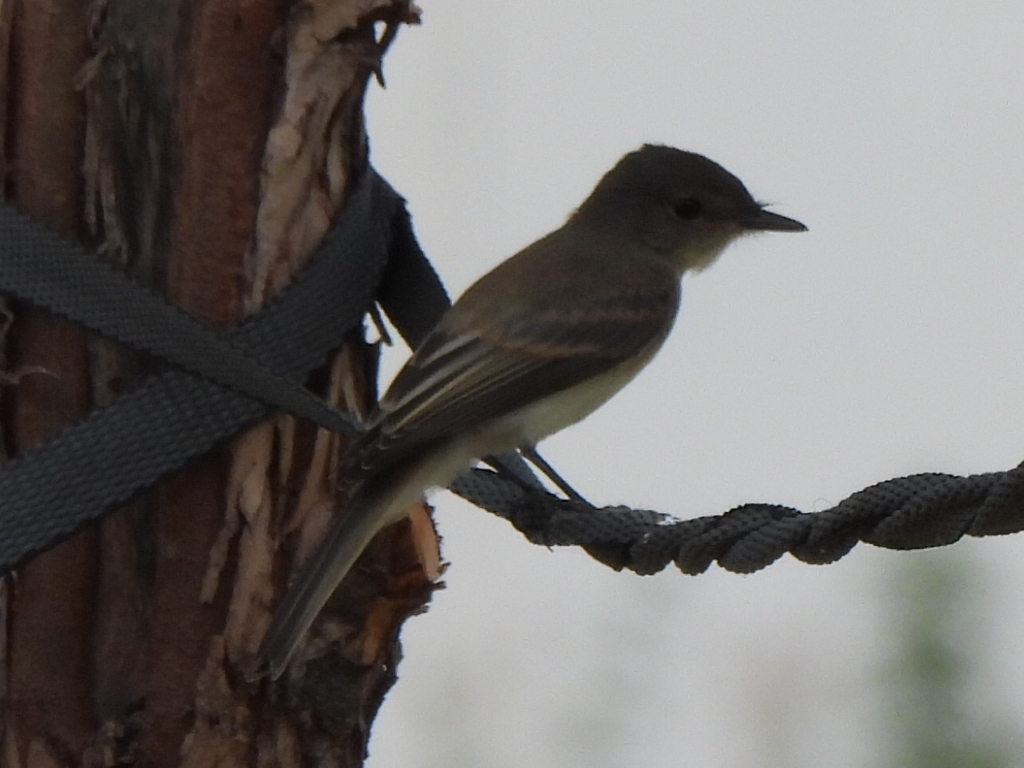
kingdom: Animalia
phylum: Chordata
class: Aves
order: Passeriformes
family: Tyrannidae
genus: Sayornis
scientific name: Sayornis phoebe
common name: Eastern phoebe
